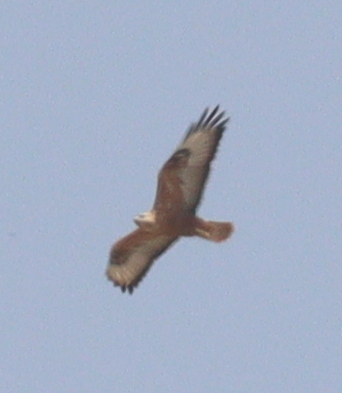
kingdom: Animalia
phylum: Chordata
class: Aves
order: Accipitriformes
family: Accipitridae
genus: Buteo
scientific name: Buteo rufinus
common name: Long-legged buzzard
